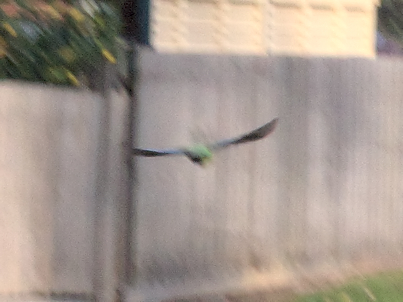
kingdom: Animalia
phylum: Chordata
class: Aves
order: Psittaciformes
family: Psittacidae
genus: Platycercus
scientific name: Platycercus eximius
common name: Eastern rosella
